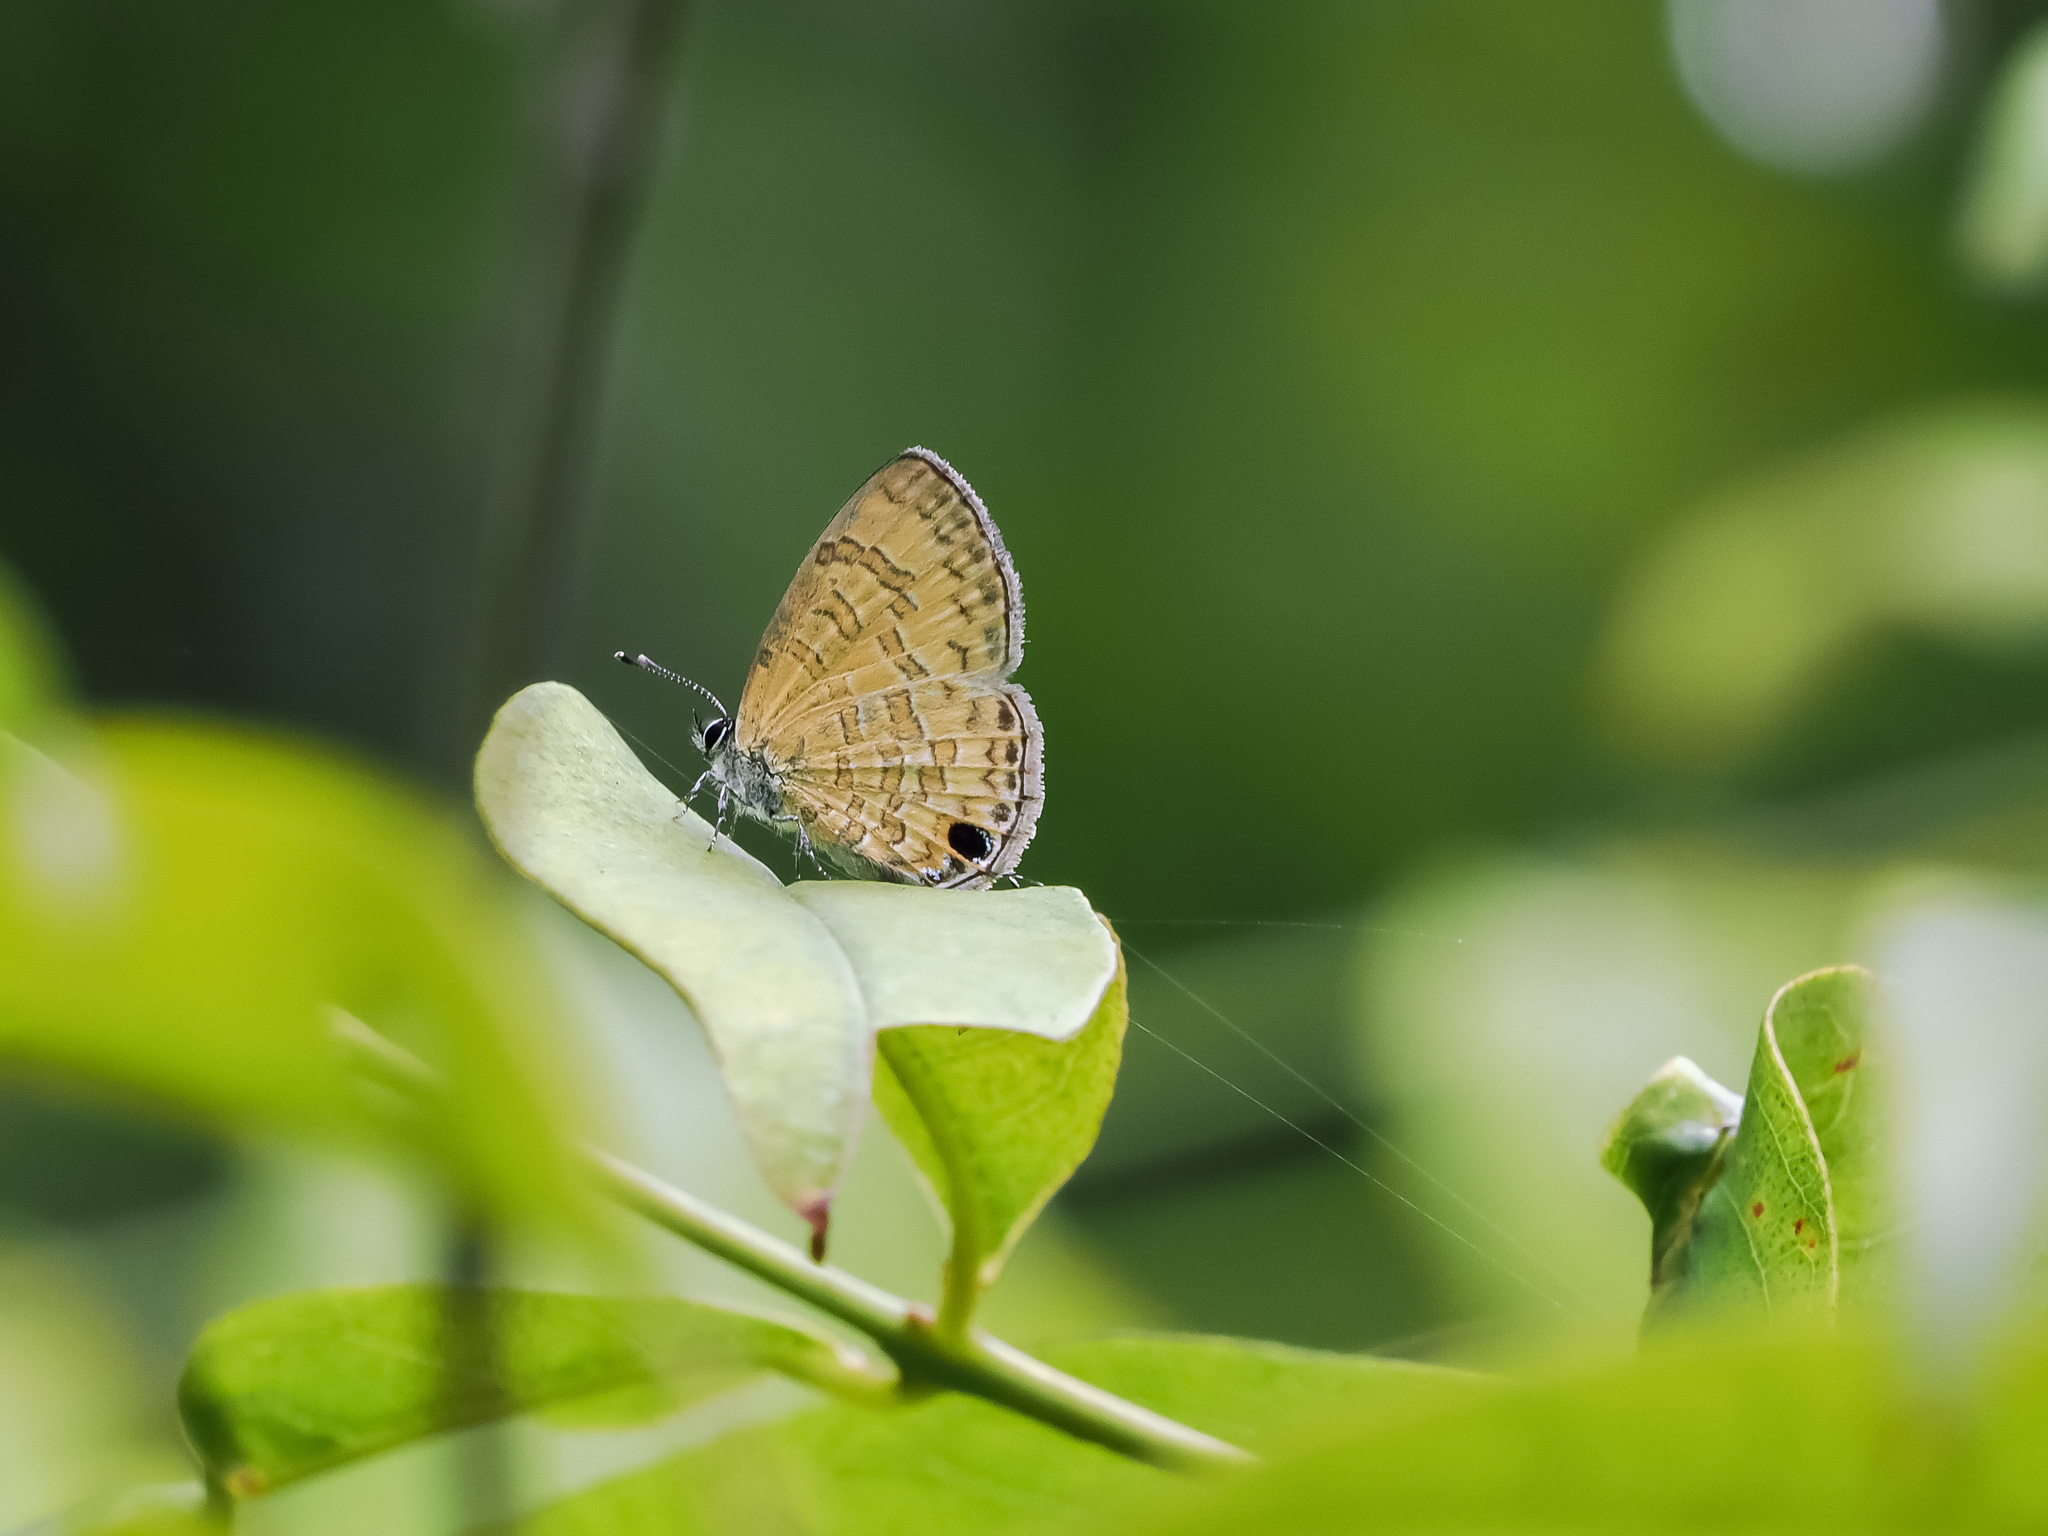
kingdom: Animalia
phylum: Arthropoda
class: Insecta
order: Lepidoptera
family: Lycaenidae
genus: Prosotas
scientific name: Prosotas nora
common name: Common line blue
